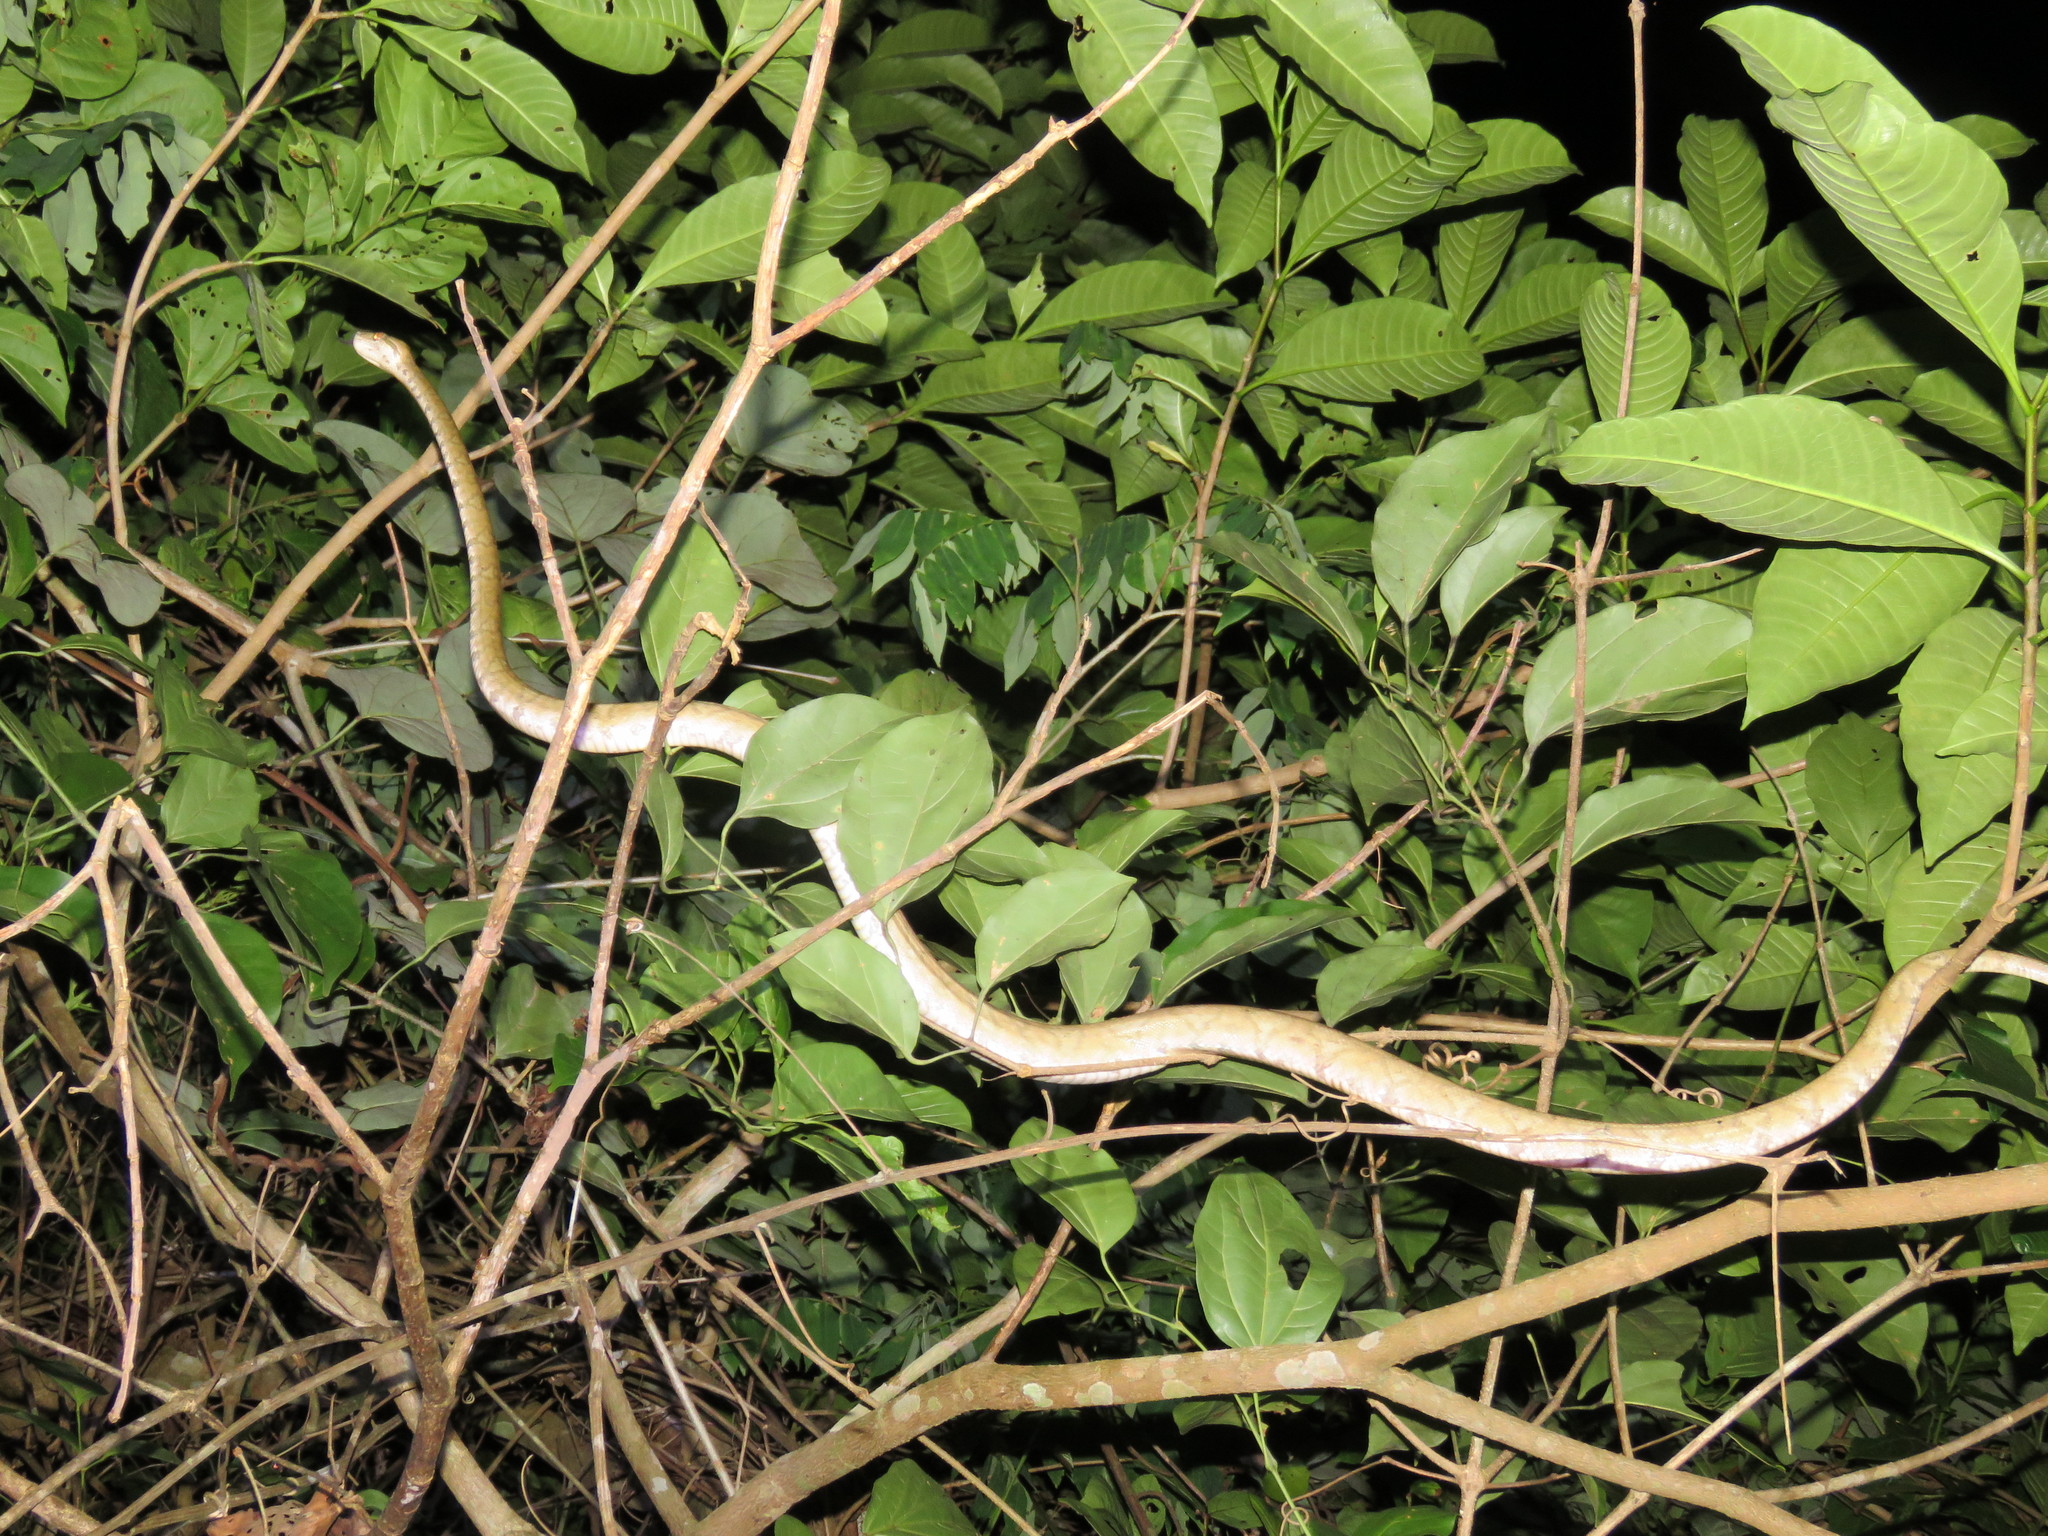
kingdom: Animalia
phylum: Chordata
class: Squamata
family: Boidae
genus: Corallus
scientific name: Corallus hortulana
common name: Garden tree boa
